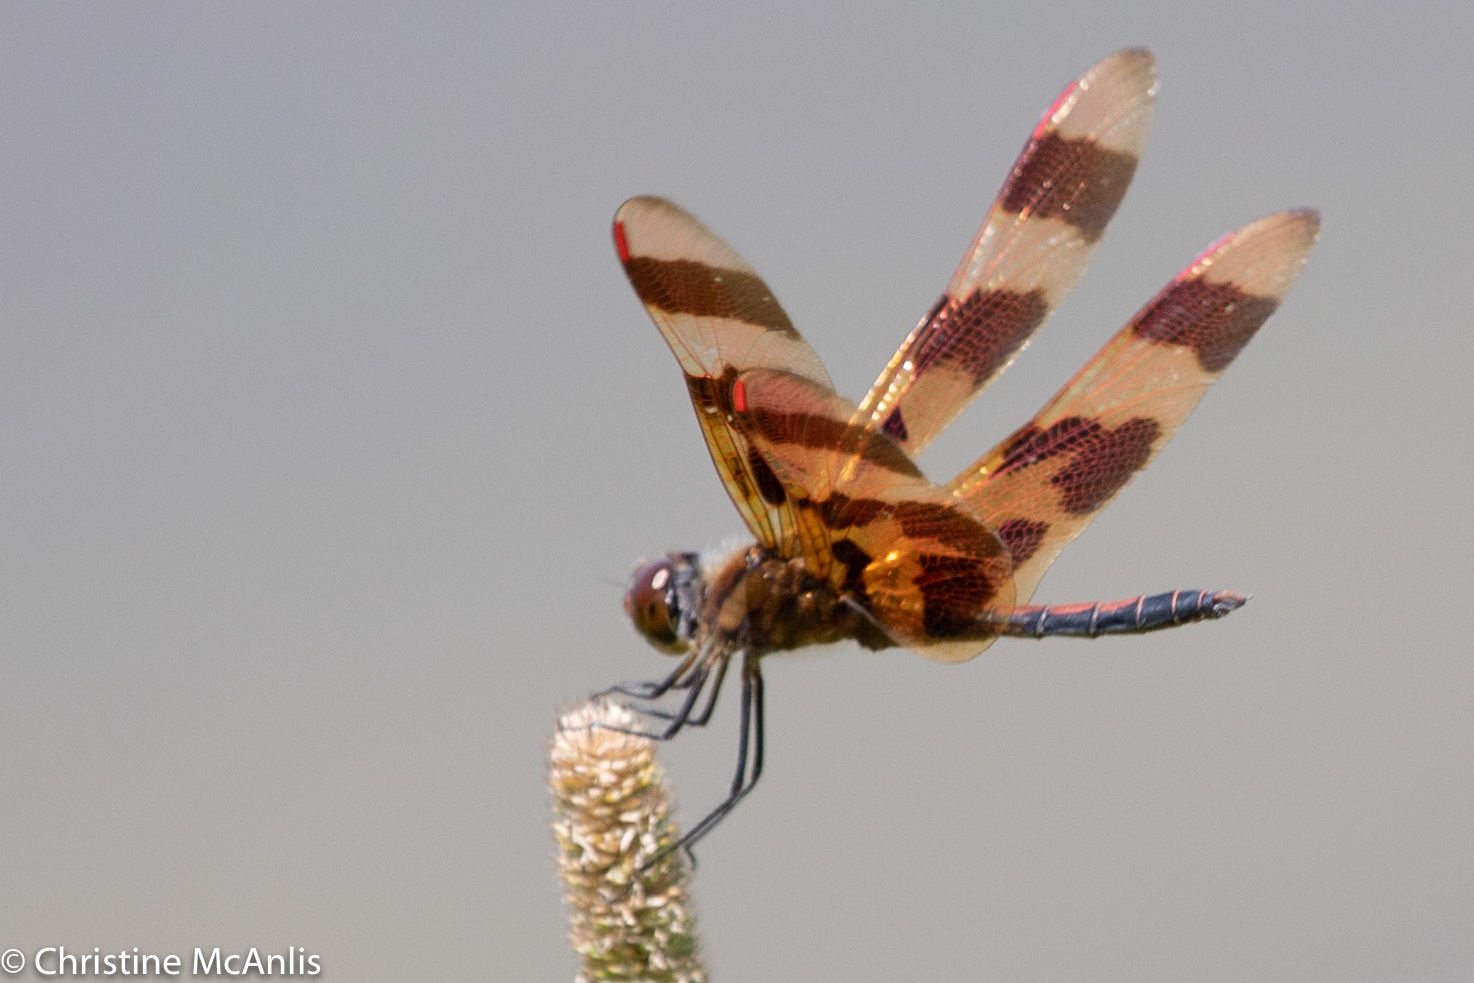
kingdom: Animalia
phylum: Arthropoda
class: Insecta
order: Odonata
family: Libellulidae
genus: Celithemis
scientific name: Celithemis eponina
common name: Halloween pennant
